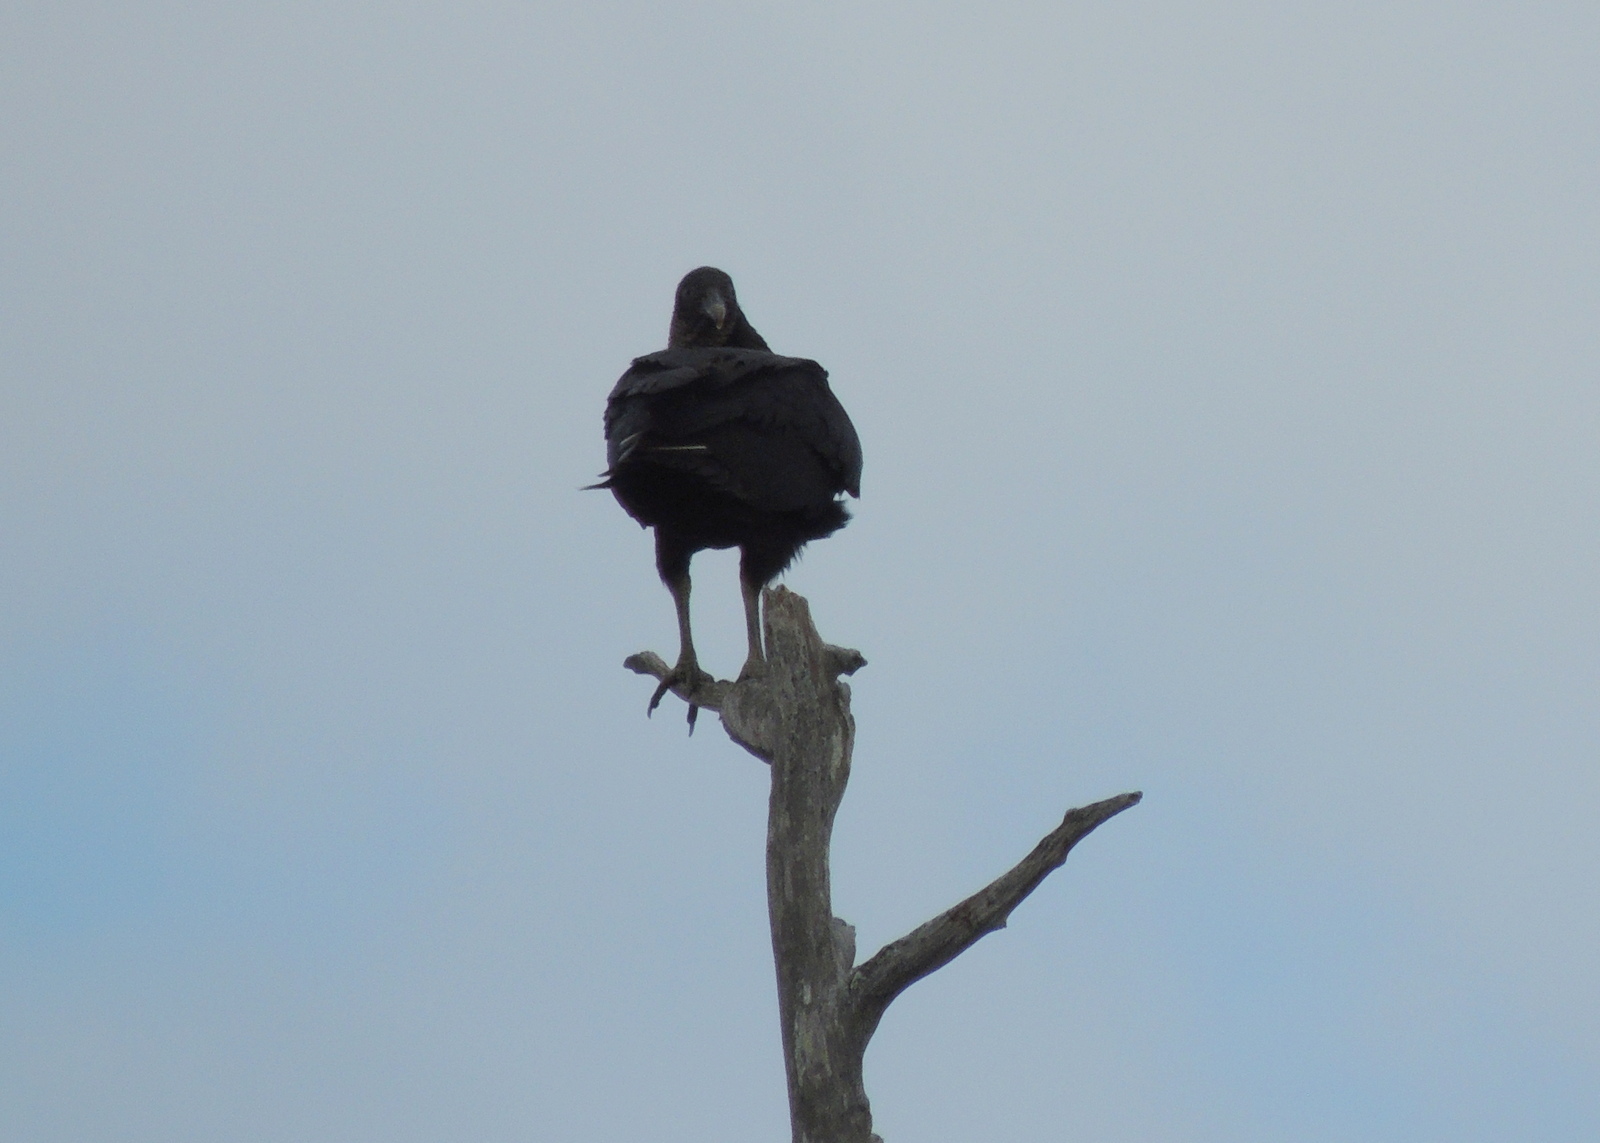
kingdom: Animalia
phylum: Chordata
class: Aves
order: Accipitriformes
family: Cathartidae
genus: Coragyps
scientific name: Coragyps atratus
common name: Black vulture
